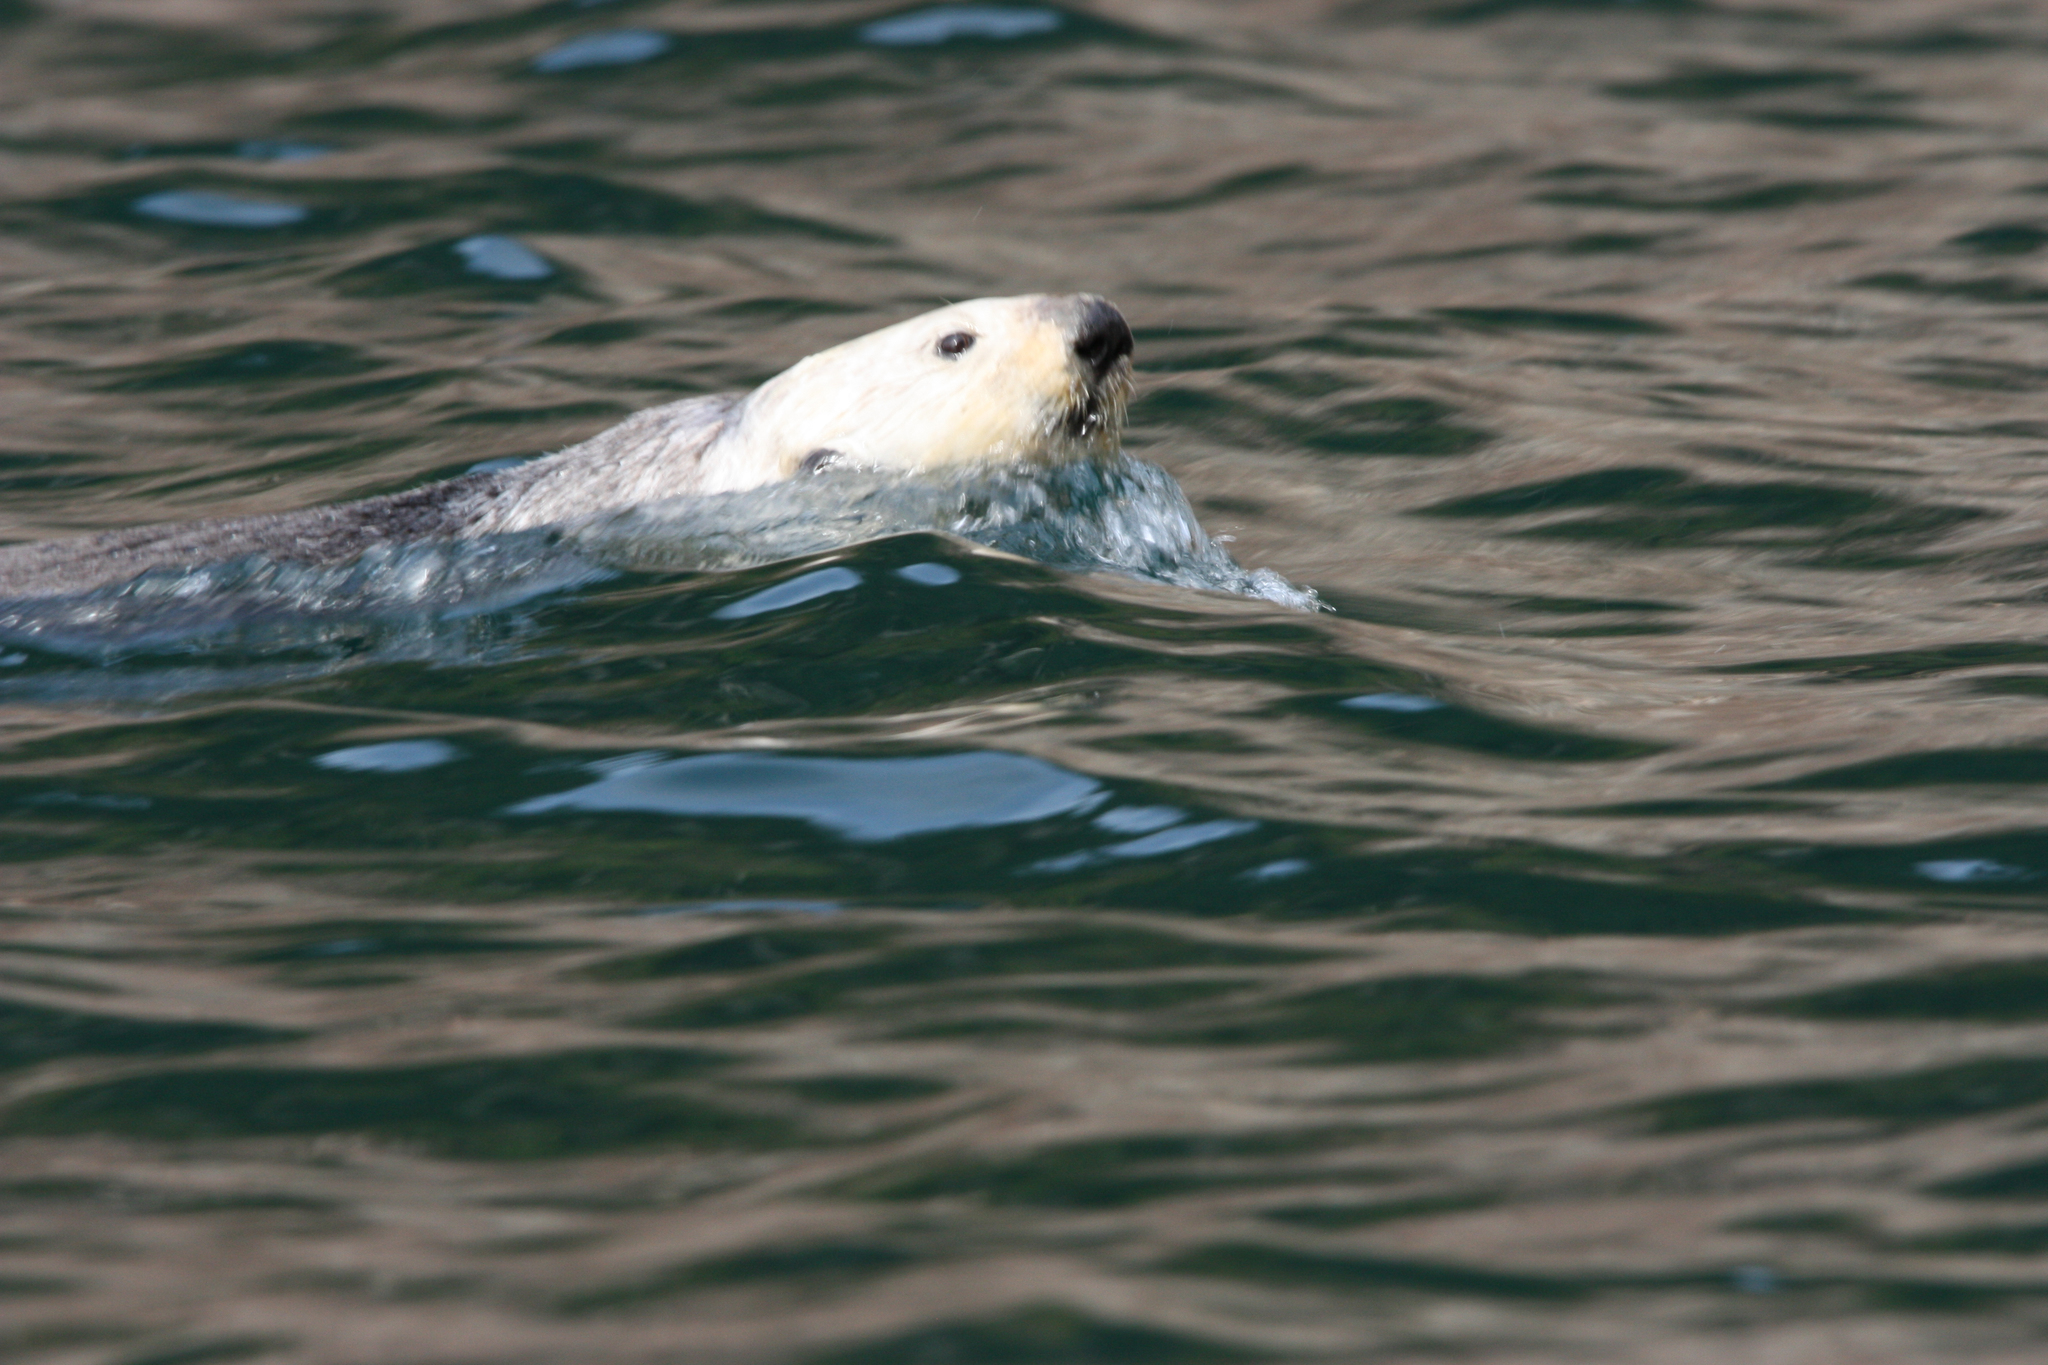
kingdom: Animalia
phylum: Chordata
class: Mammalia
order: Carnivora
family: Mustelidae
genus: Enhydra
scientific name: Enhydra lutris
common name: Sea otter
